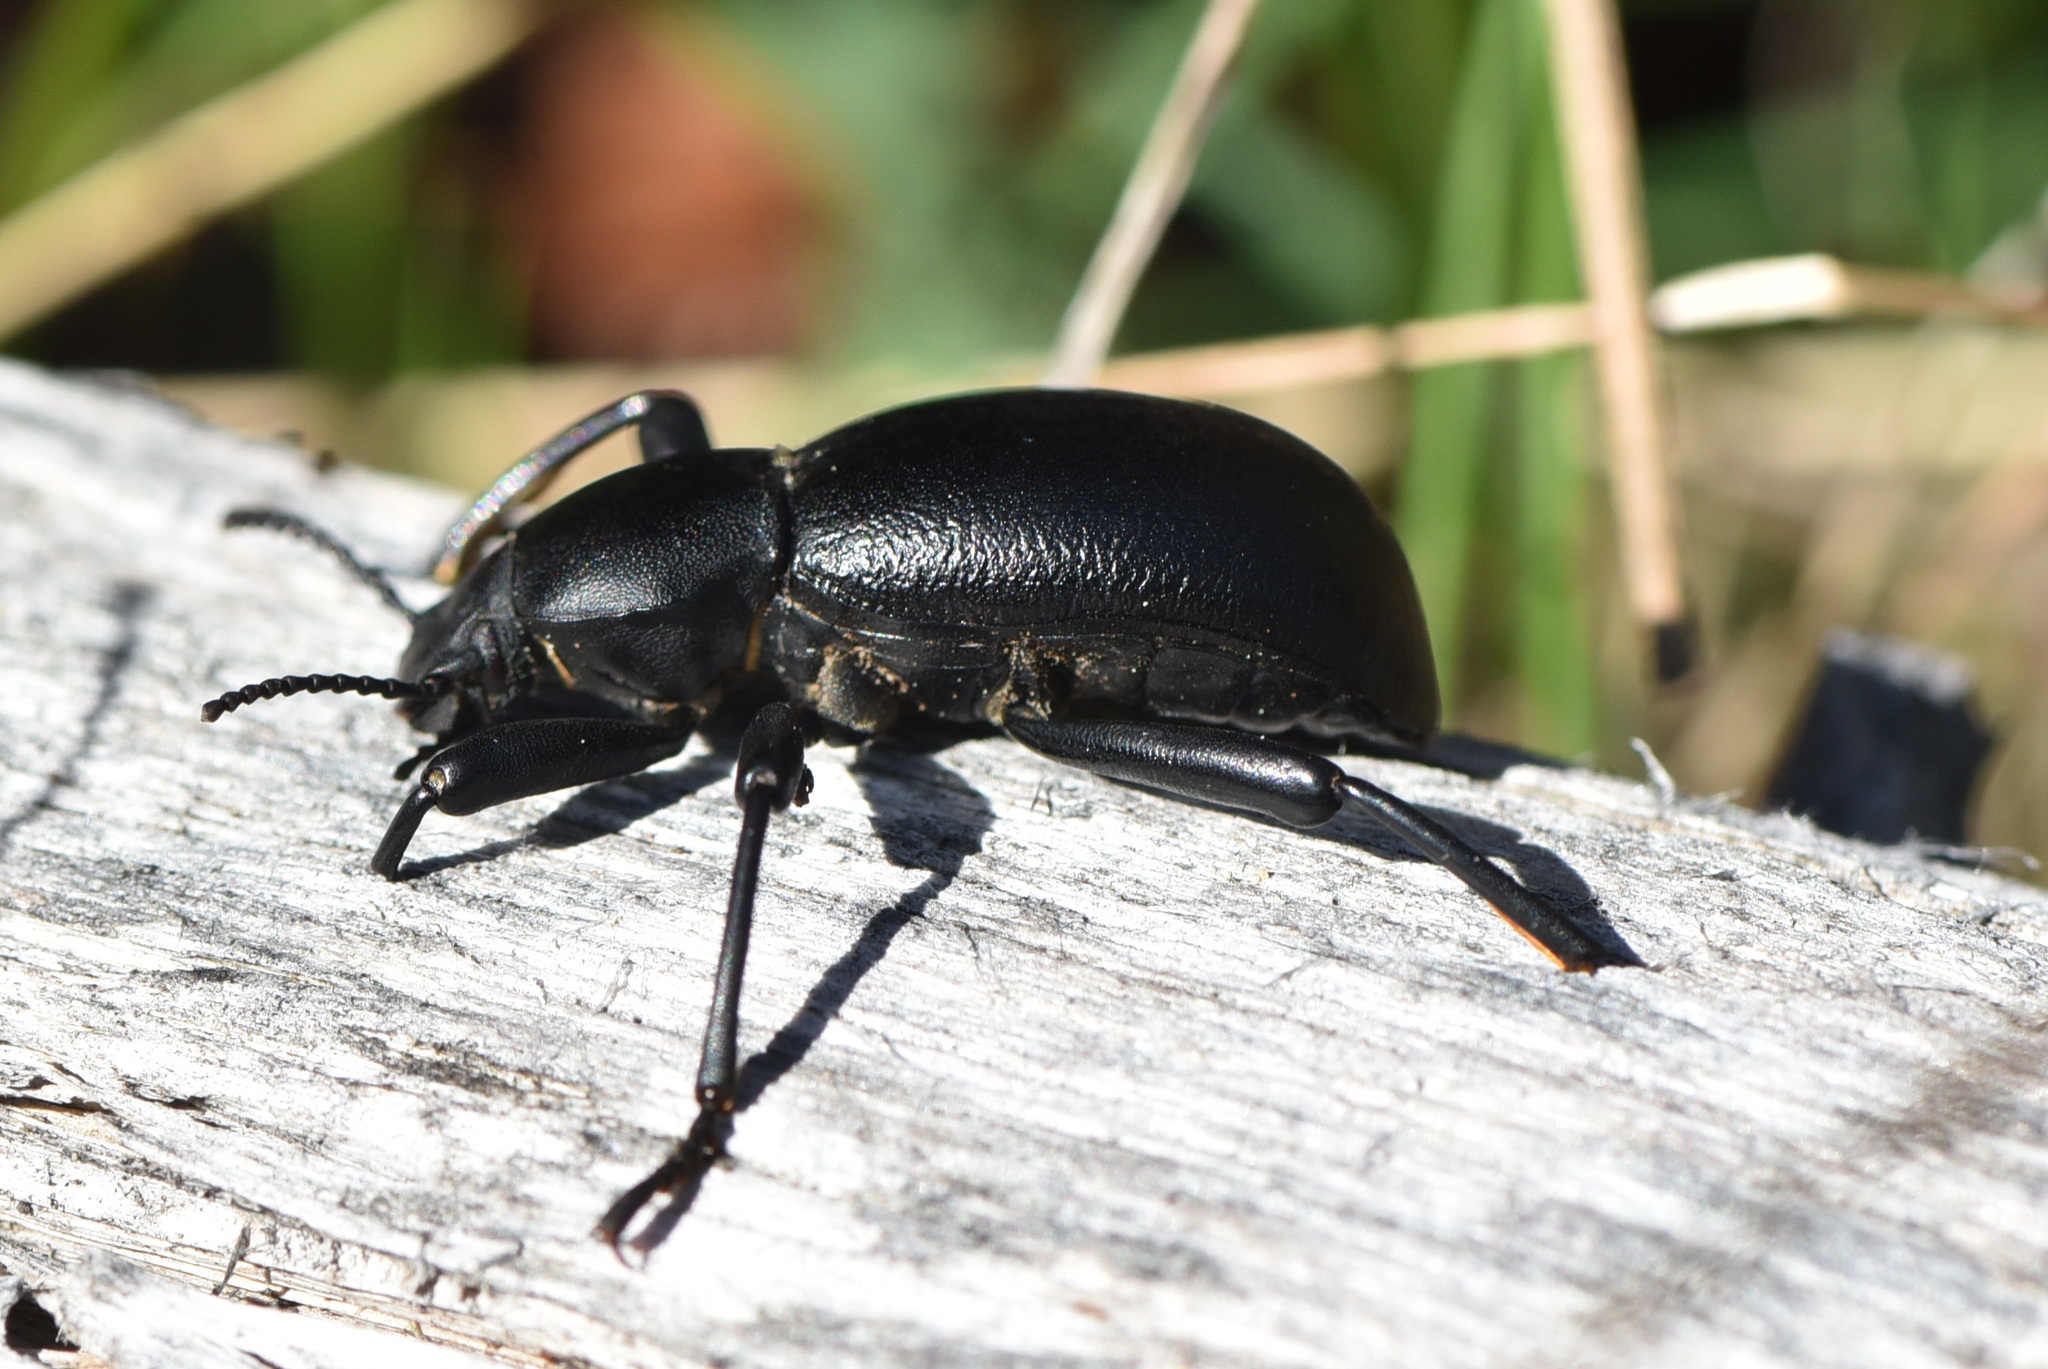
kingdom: Animalia
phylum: Arthropoda
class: Insecta
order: Coleoptera
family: Tenebrionidae
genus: Coelocnemis
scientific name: Coelocnemis dilaticollis
